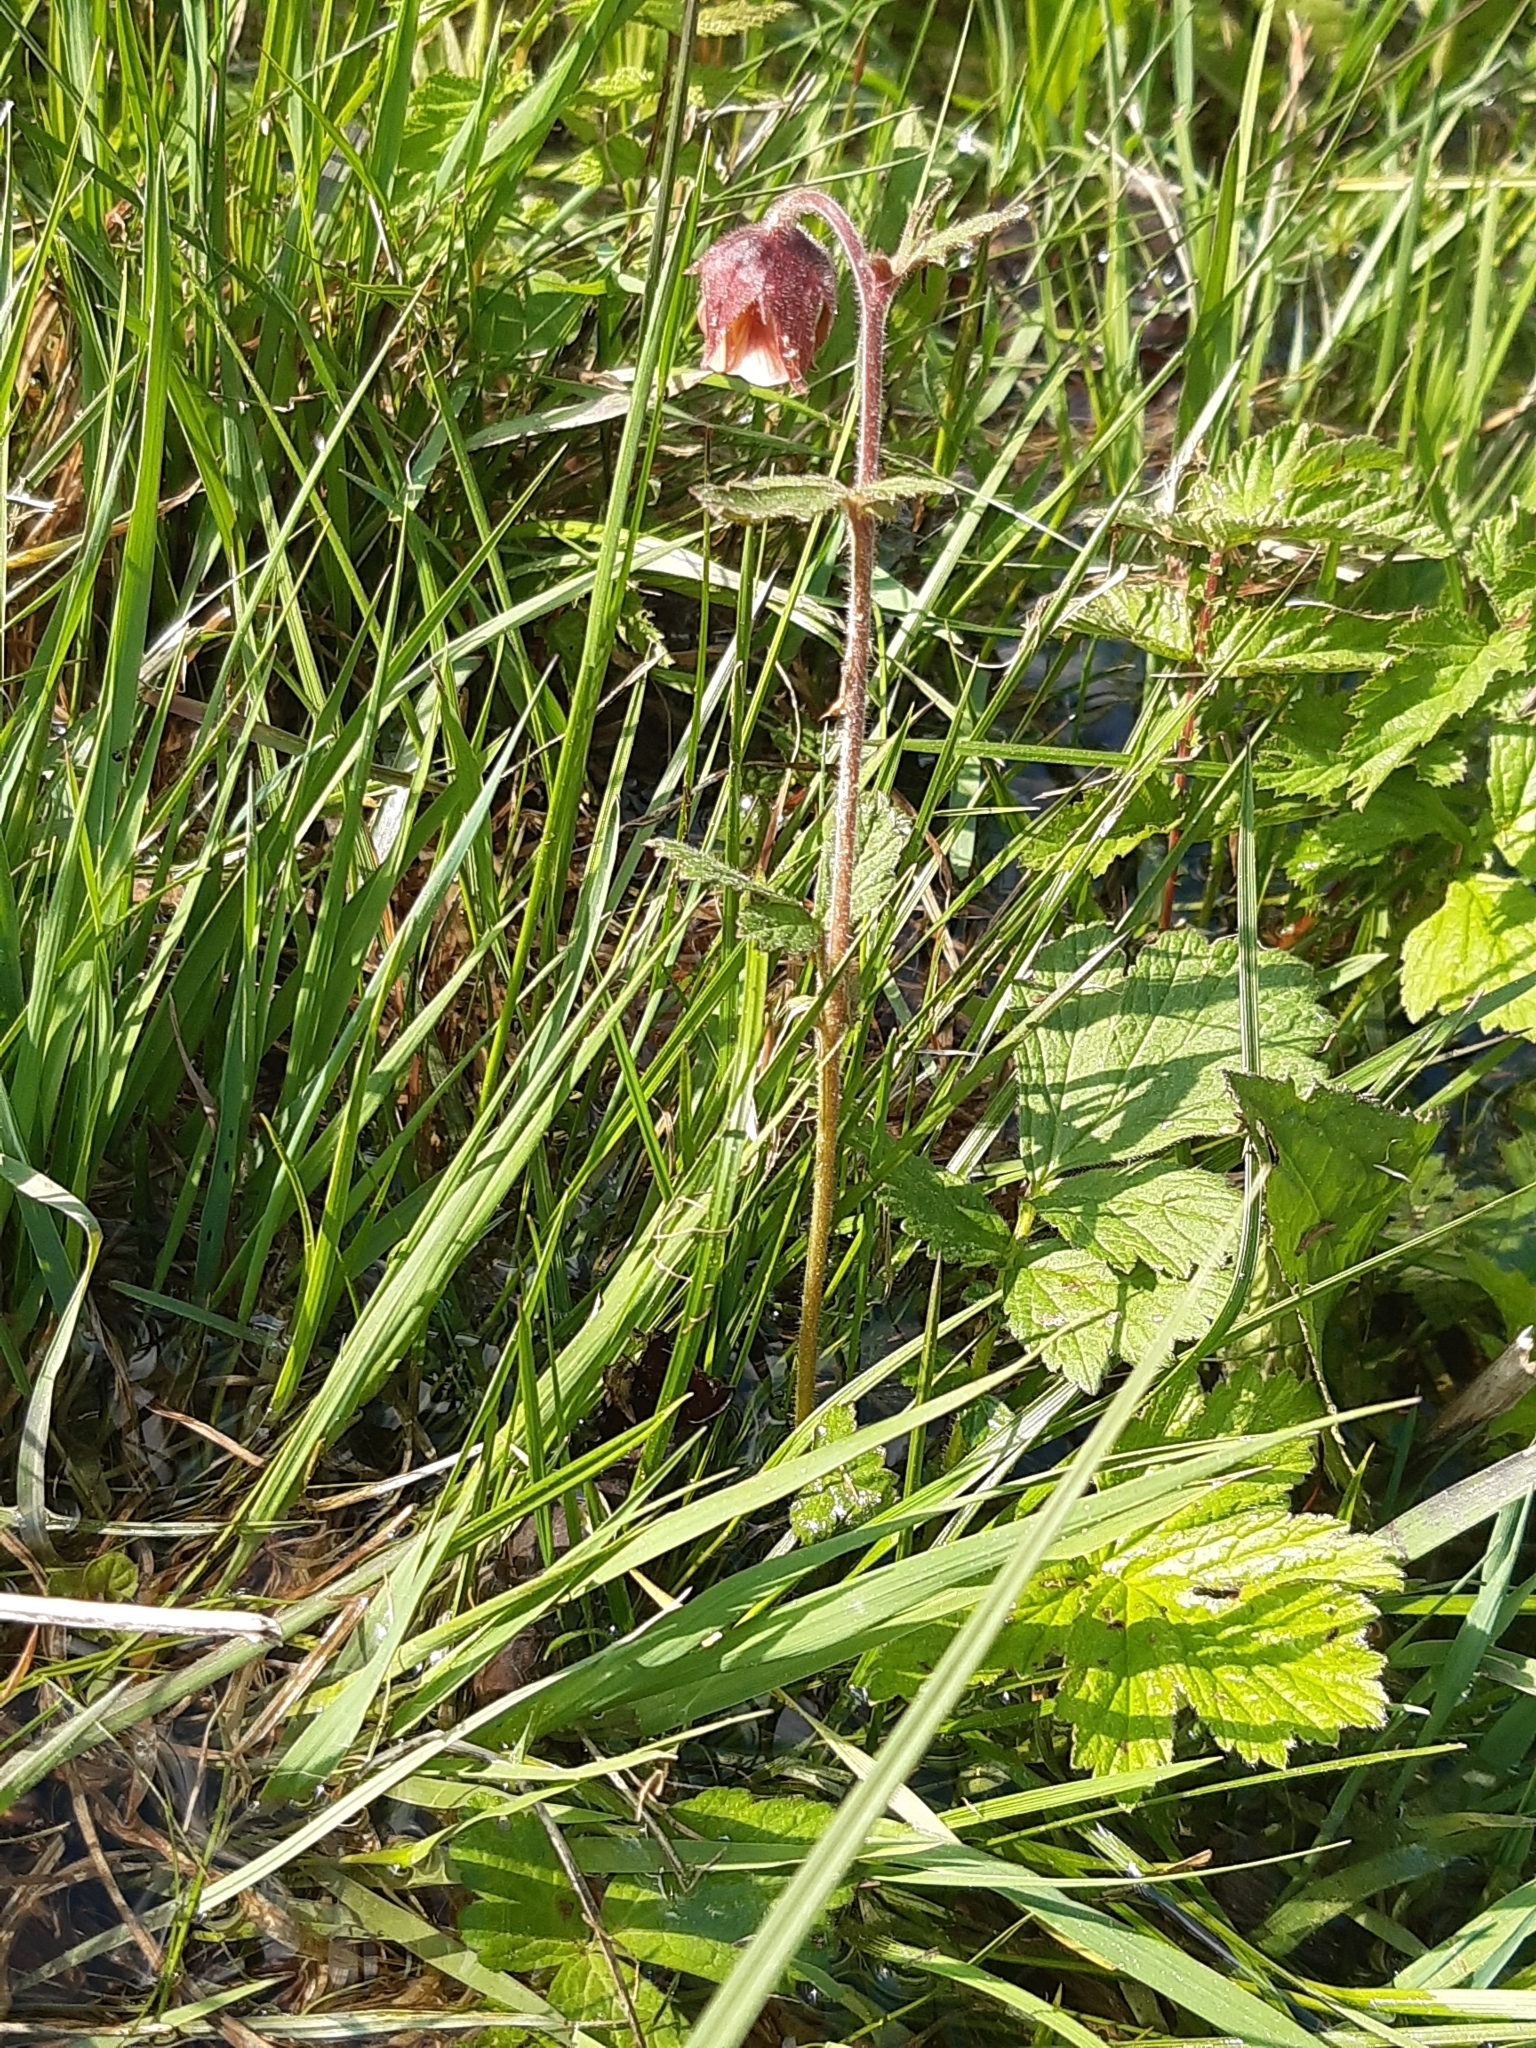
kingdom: Plantae
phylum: Tracheophyta
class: Magnoliopsida
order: Rosales
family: Rosaceae
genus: Geum
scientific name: Geum rivale
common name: Water avens
